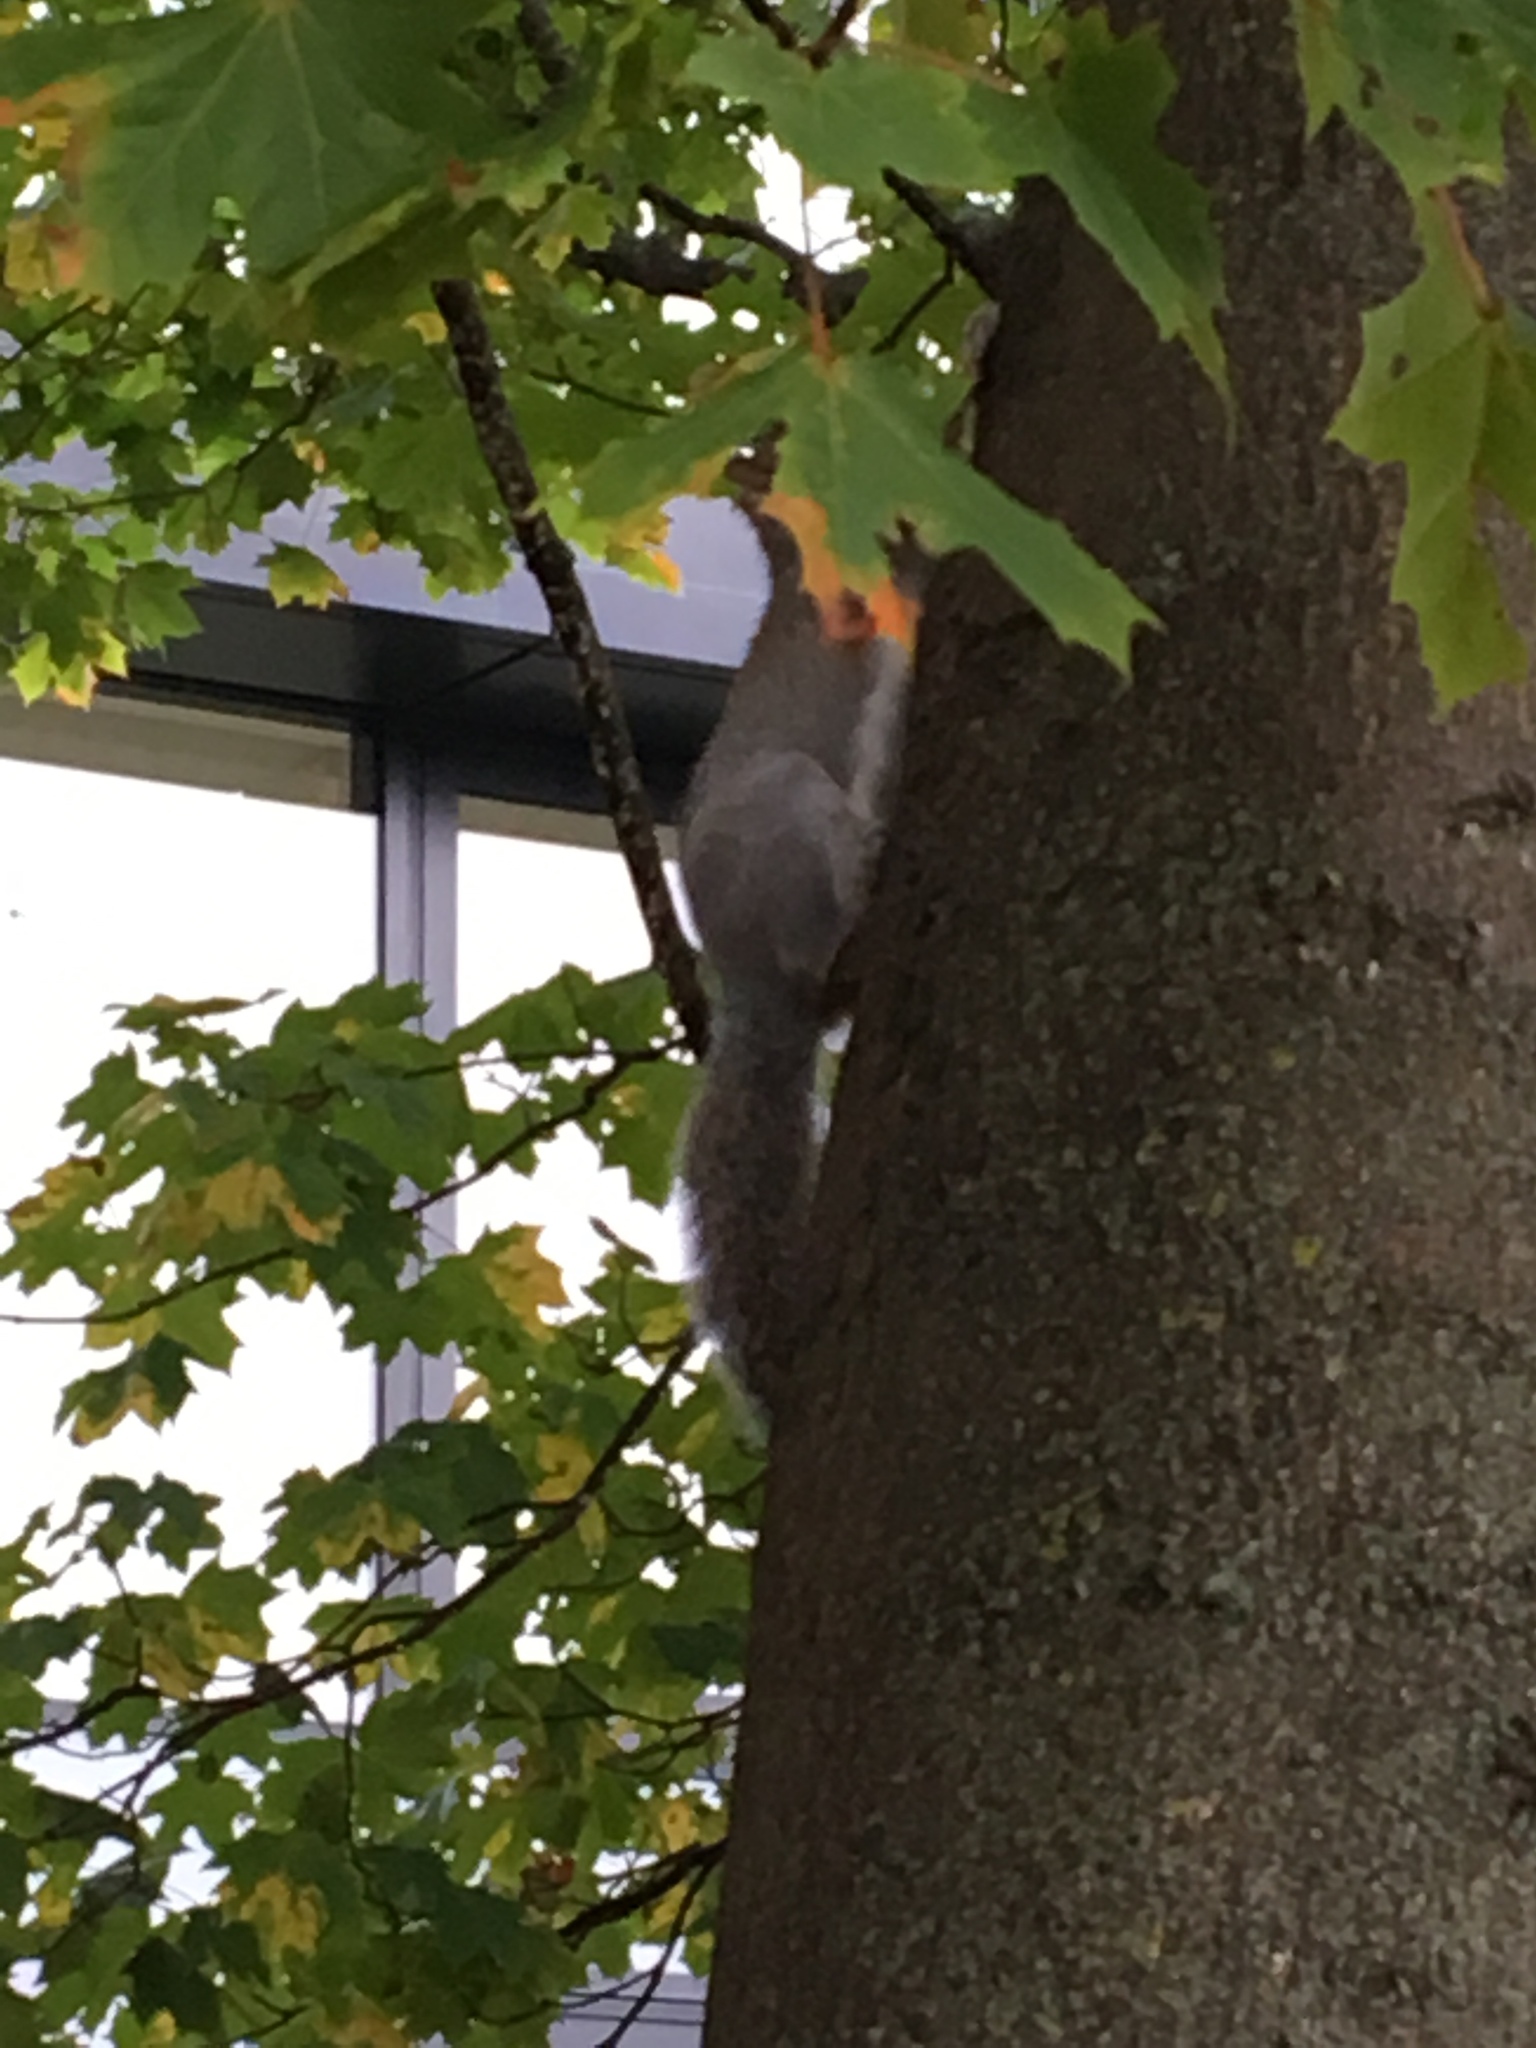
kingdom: Animalia
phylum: Chordata
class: Mammalia
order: Rodentia
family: Sciuridae
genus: Sciurus
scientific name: Sciurus carolinensis
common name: Eastern gray squirrel
